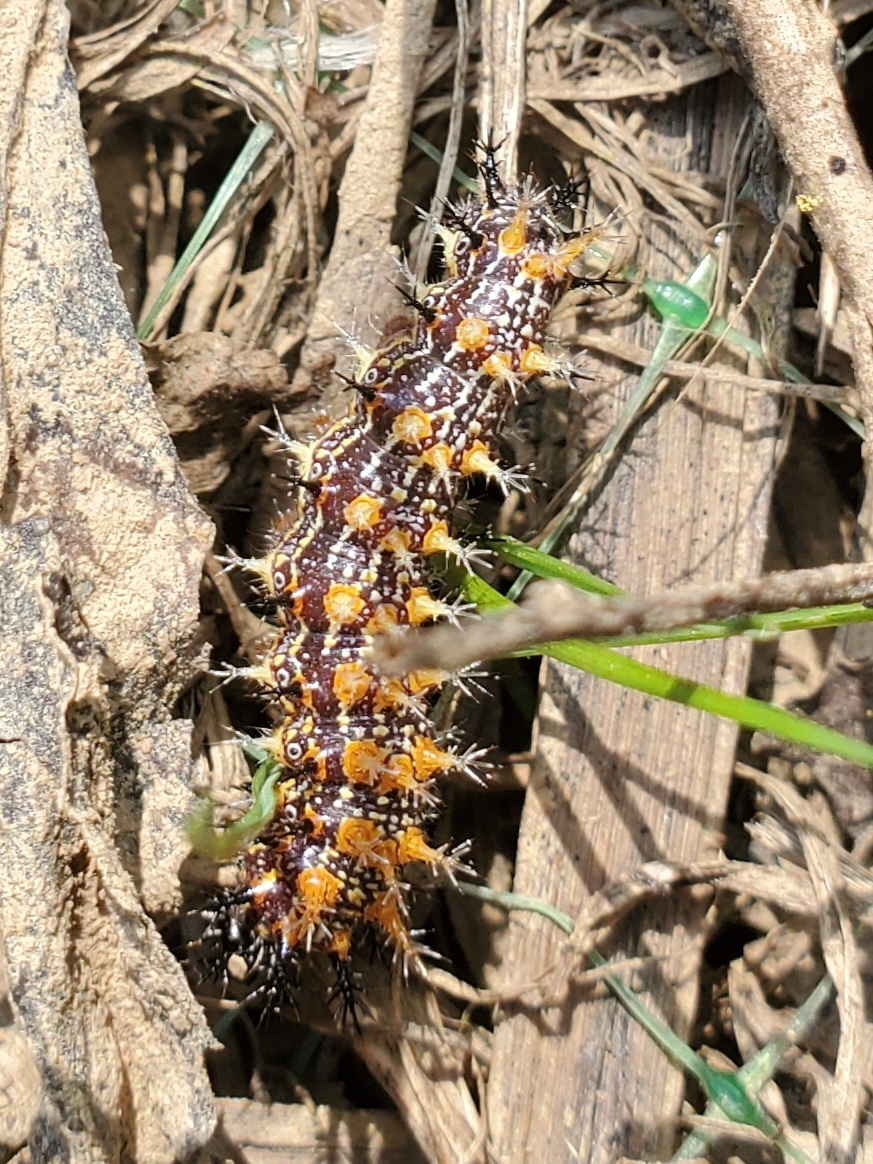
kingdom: Animalia
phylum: Arthropoda
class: Insecta
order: Lepidoptera
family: Nymphalidae
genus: Polygonia
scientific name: Polygonia interrogationis
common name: Question mark
